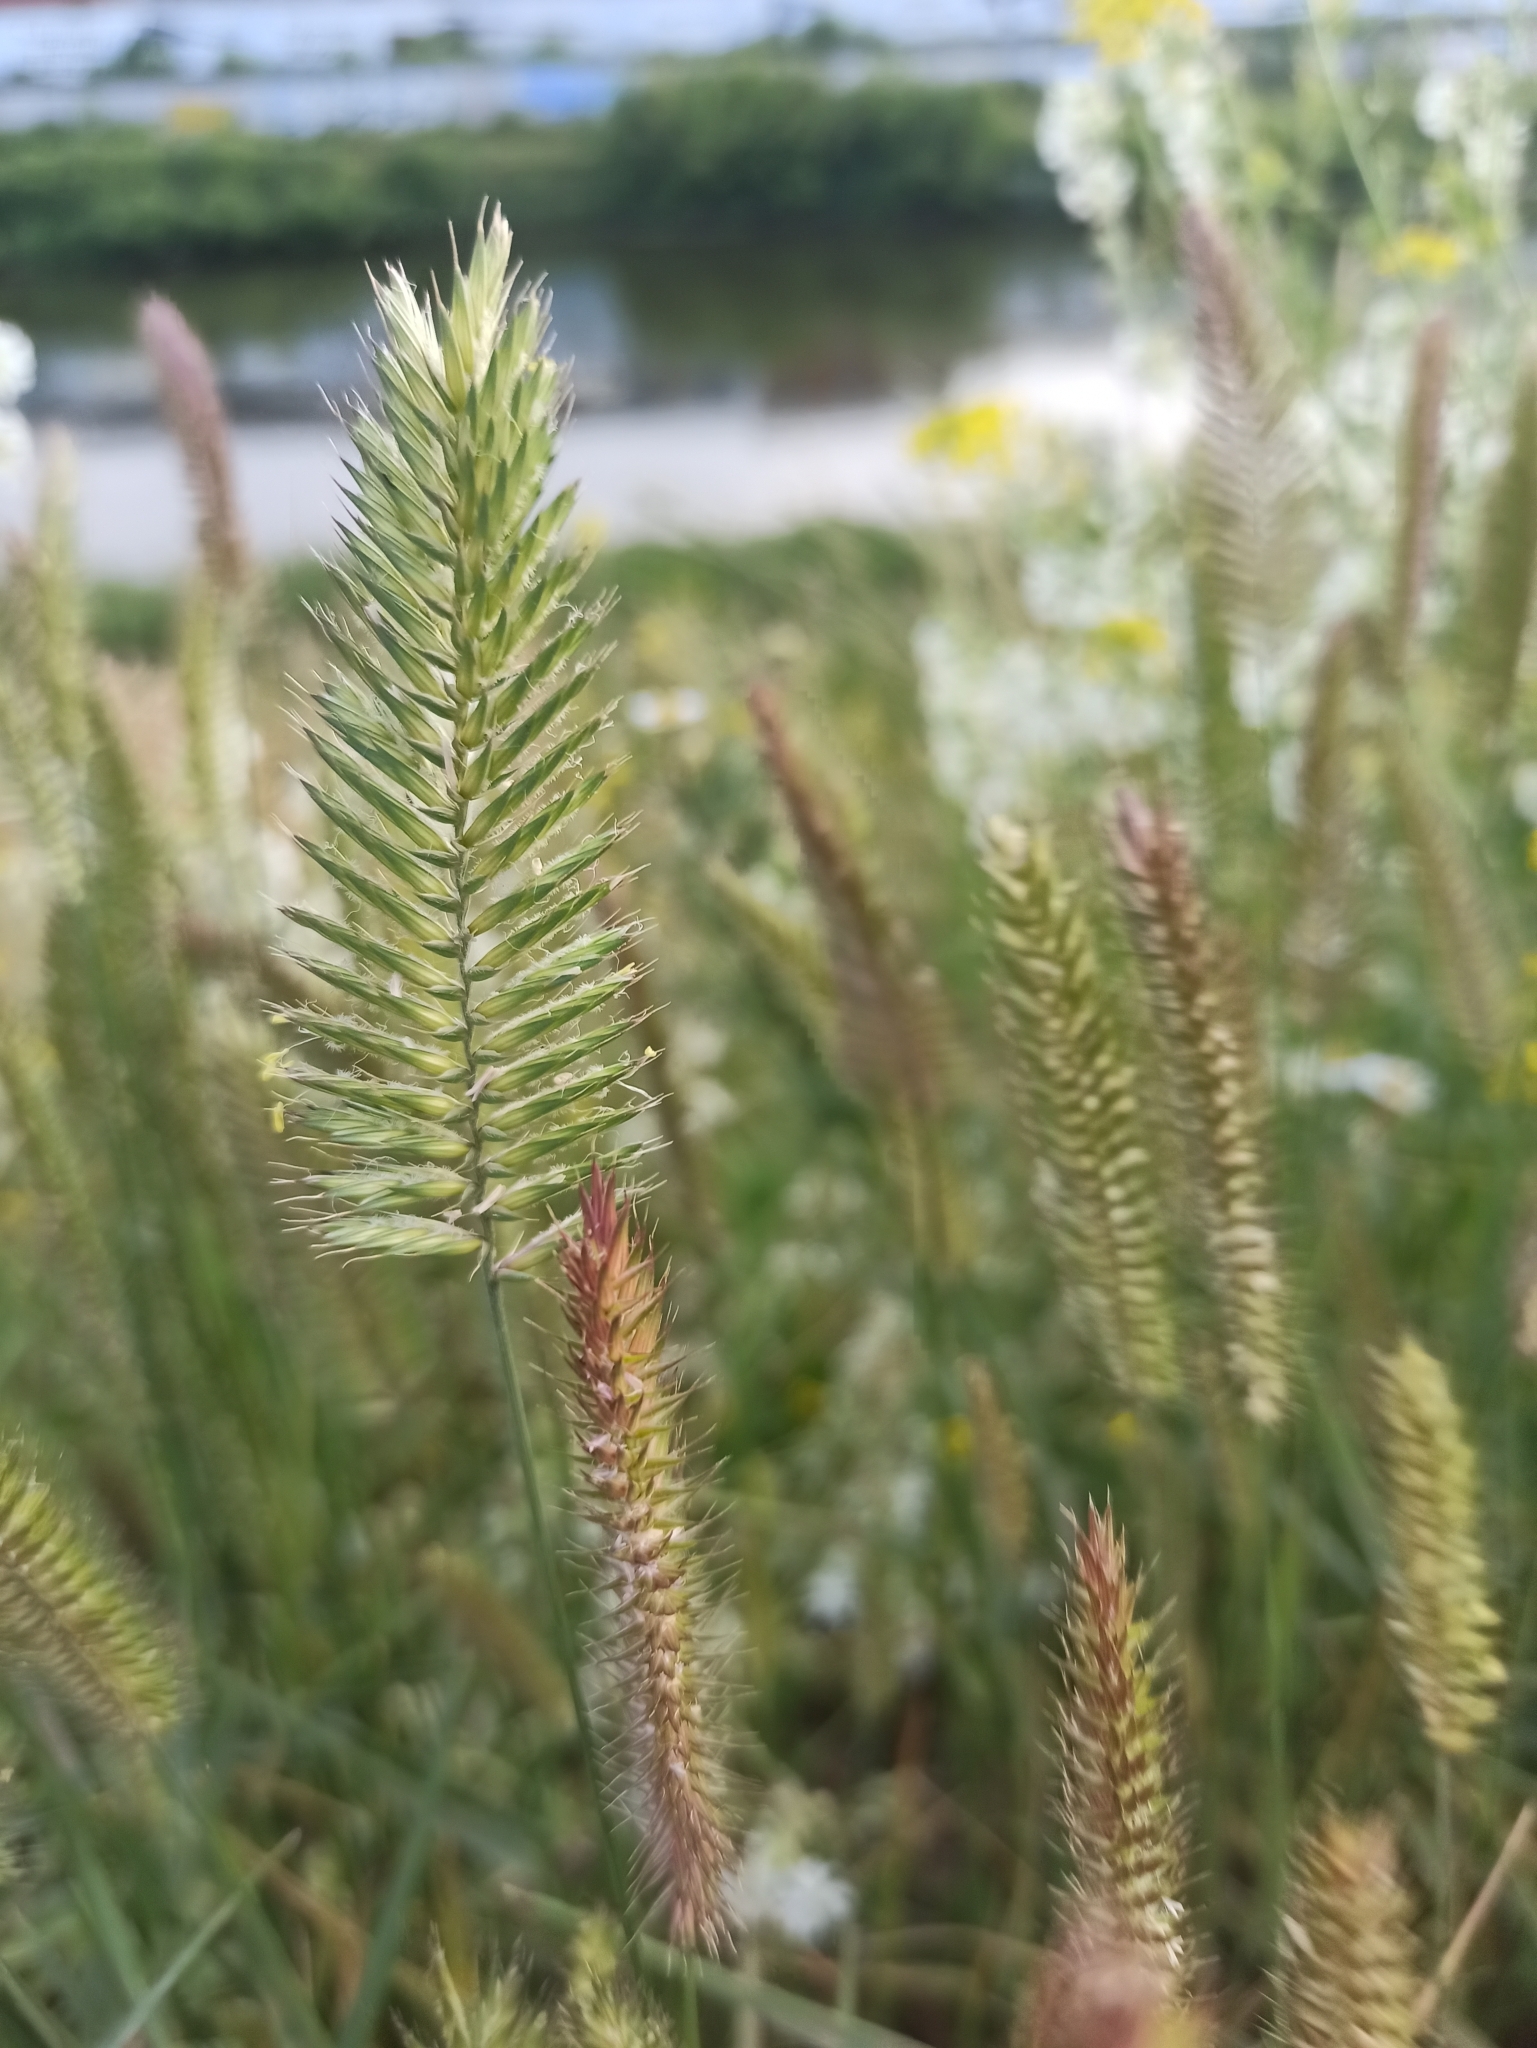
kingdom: Plantae
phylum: Tracheophyta
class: Liliopsida
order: Poales
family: Poaceae
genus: Agropyron
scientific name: Agropyron cristatum
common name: Crested wheatgrass
